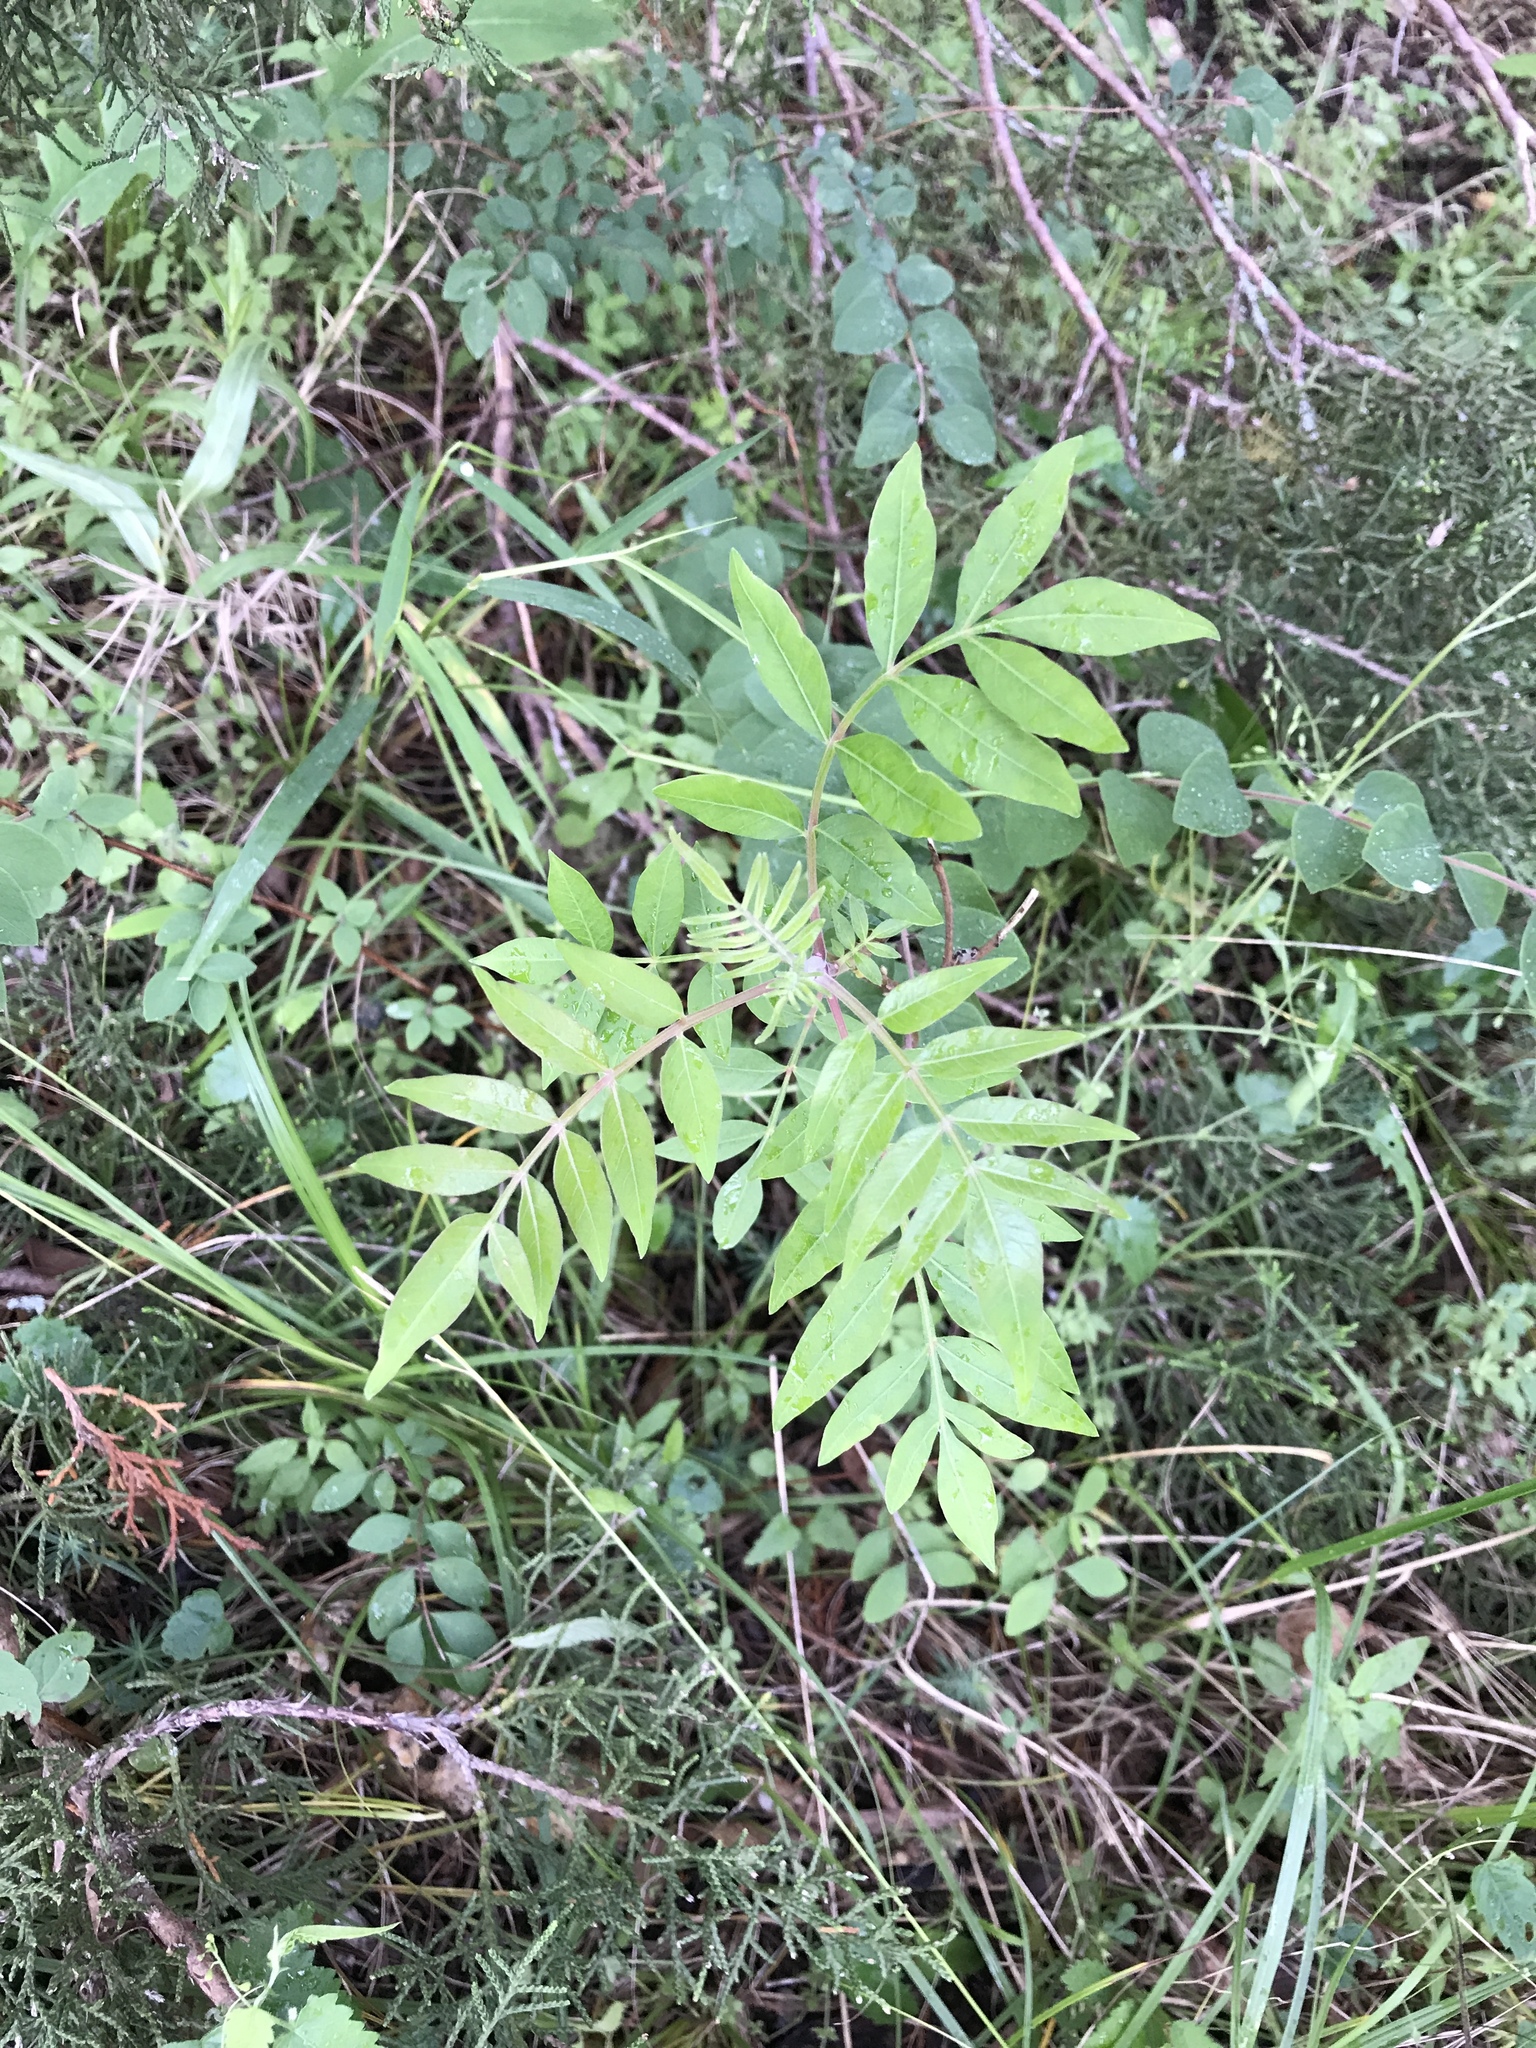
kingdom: Plantae
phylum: Tracheophyta
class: Magnoliopsida
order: Sapindales
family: Anacardiaceae
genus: Rhus
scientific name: Rhus lanceolata
